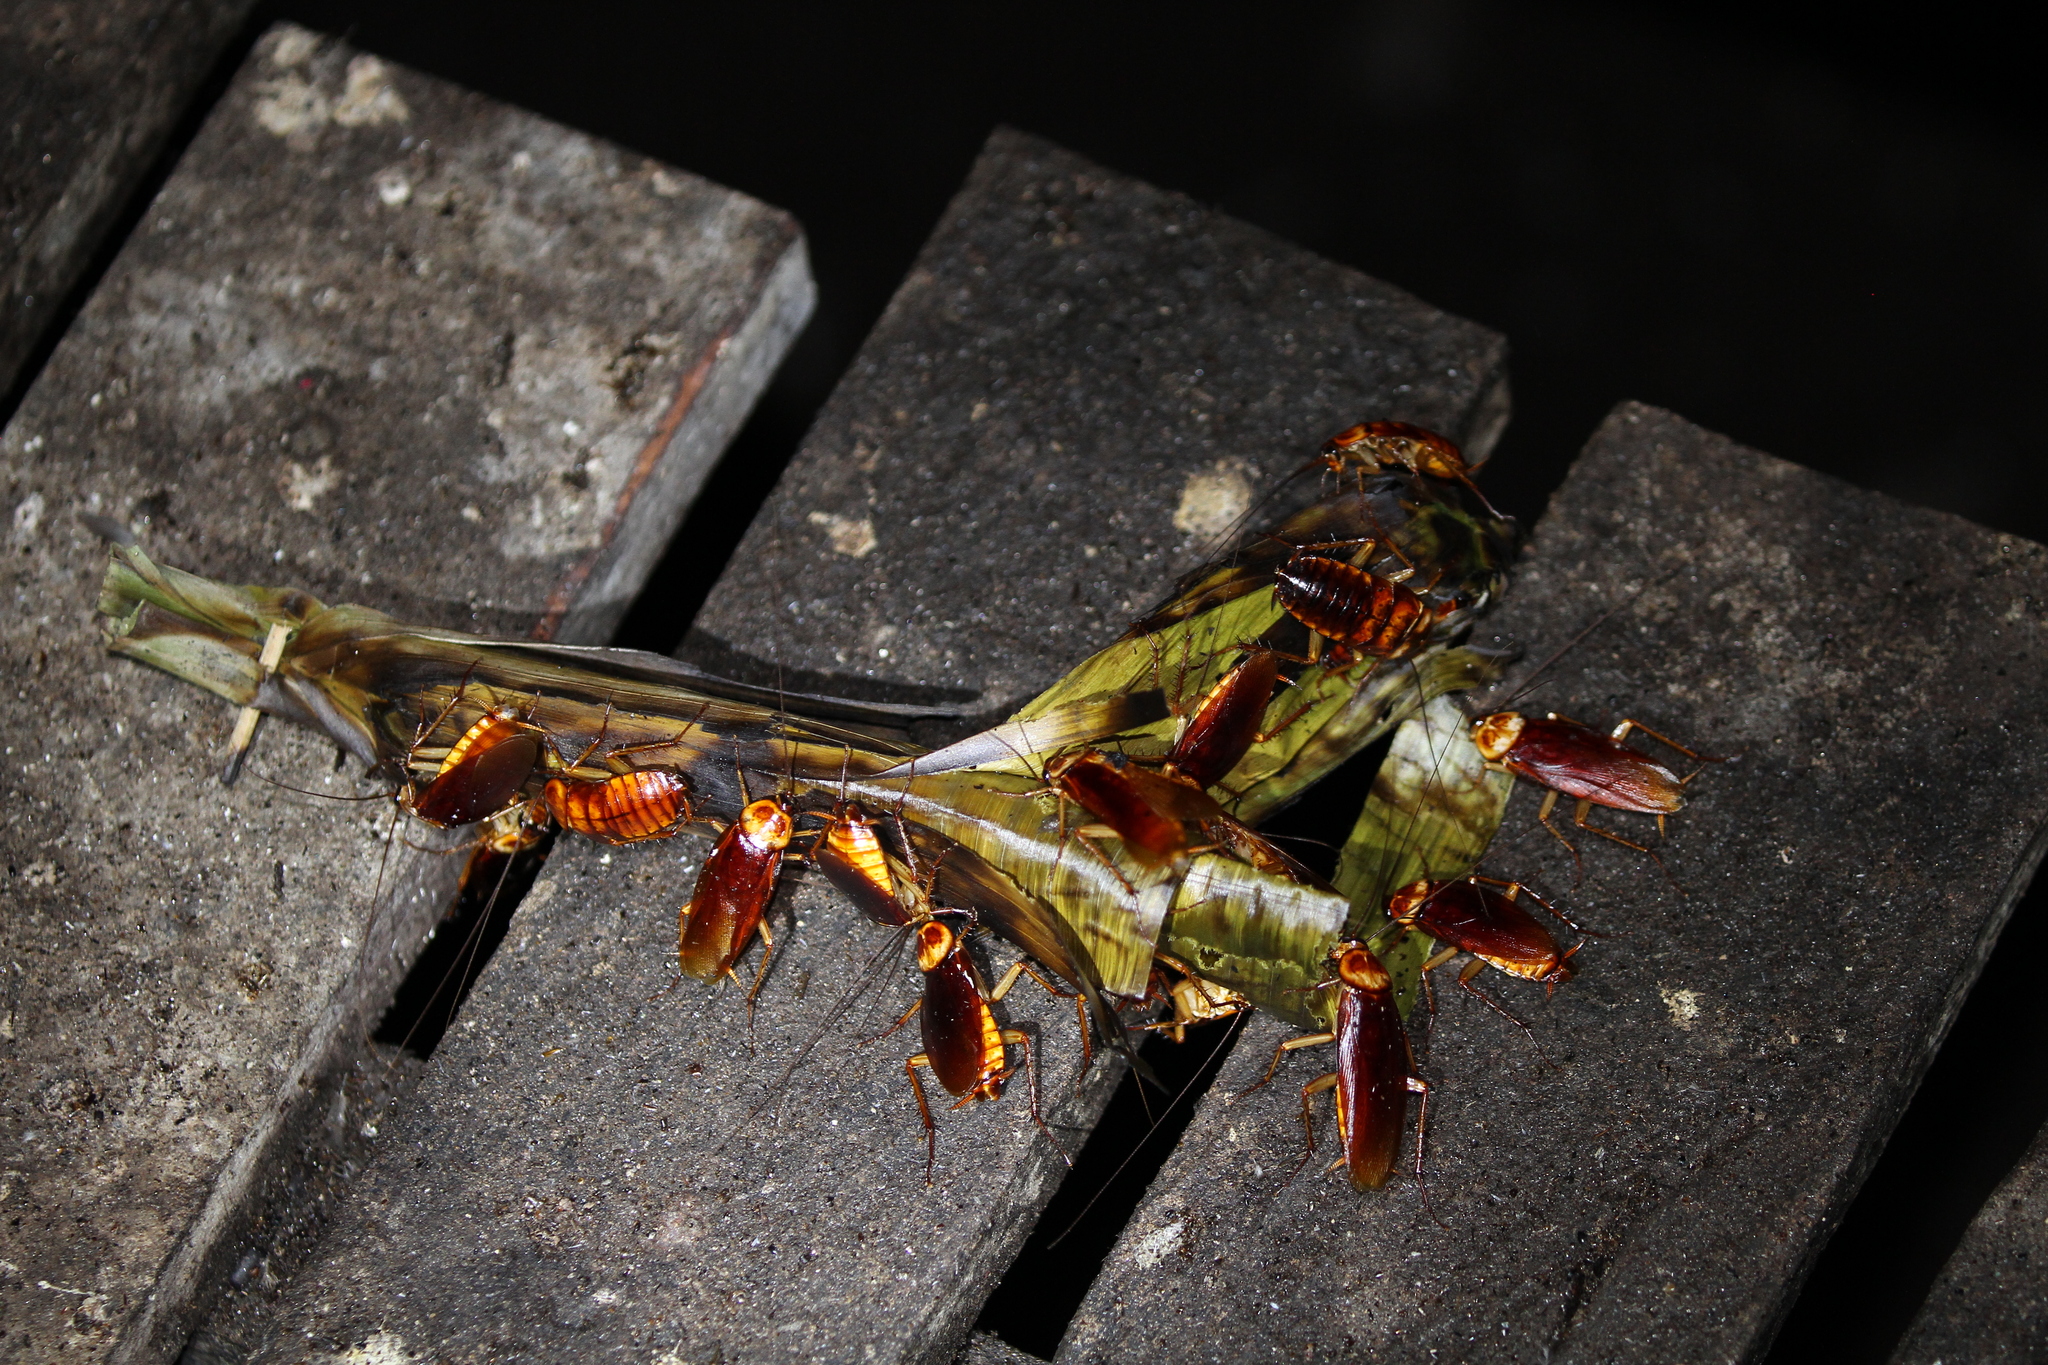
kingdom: Animalia
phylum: Arthropoda
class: Insecta
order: Blattodea
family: Blattidae
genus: Periplaneta
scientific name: Periplaneta americana
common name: American cockroach
